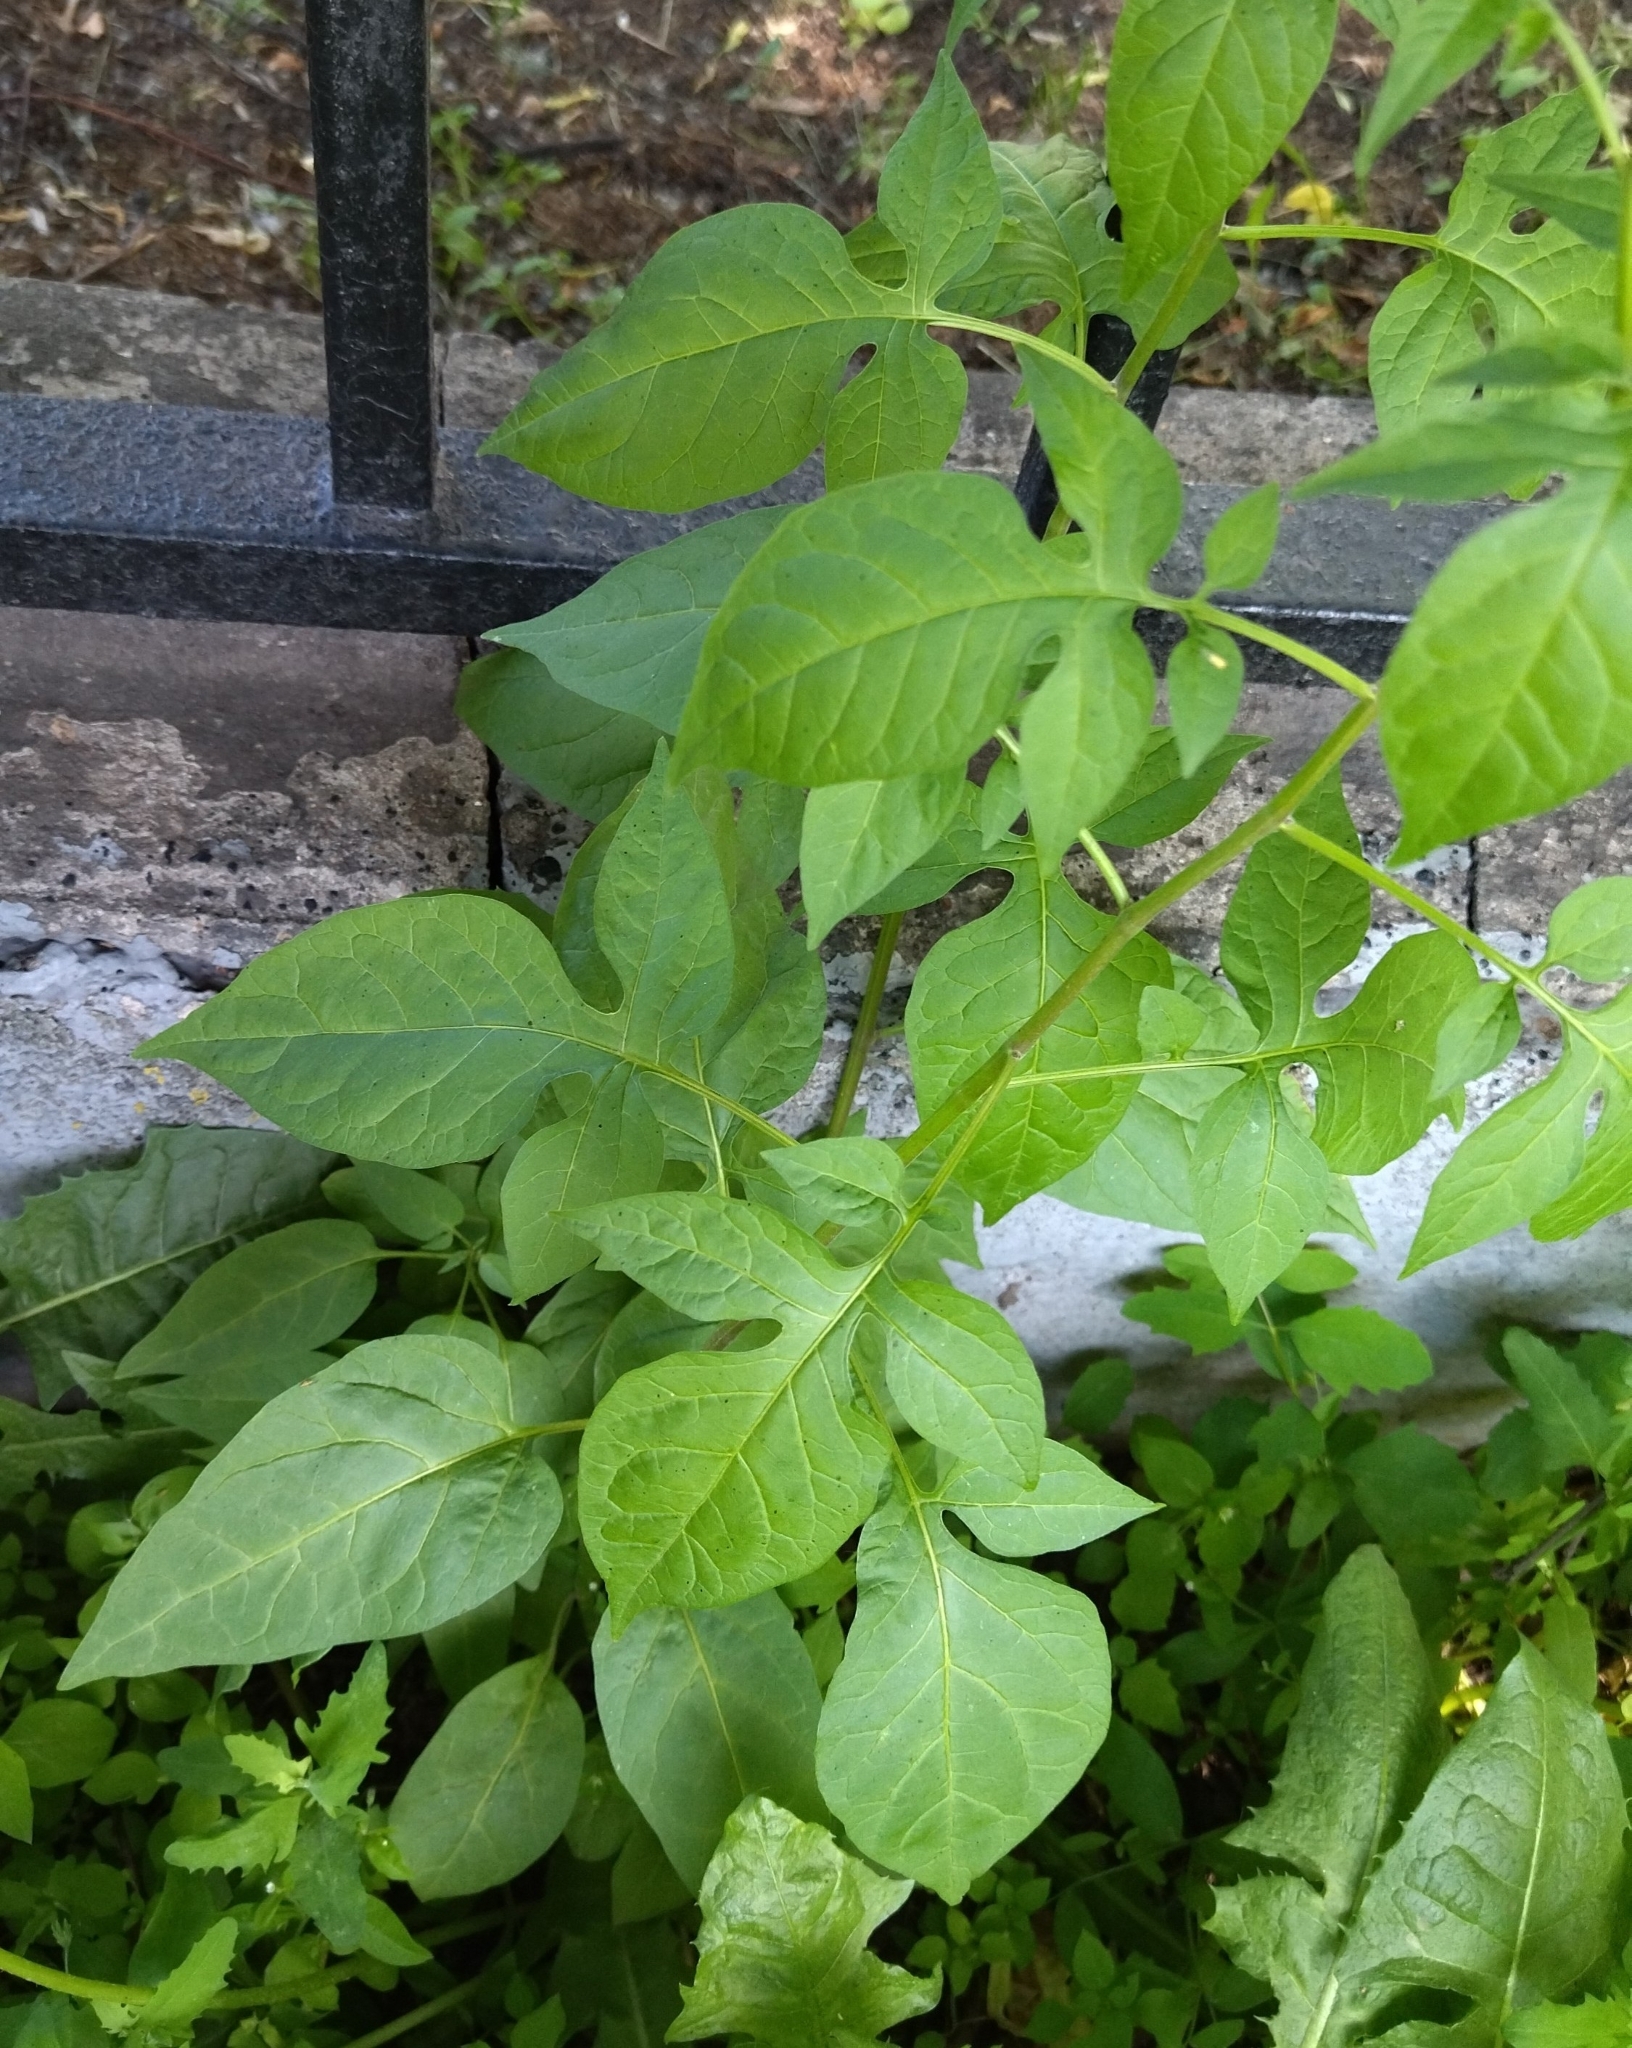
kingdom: Plantae
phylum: Tracheophyta
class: Magnoliopsida
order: Solanales
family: Solanaceae
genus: Solanum
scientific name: Solanum dulcamara
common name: Climbing nightshade
